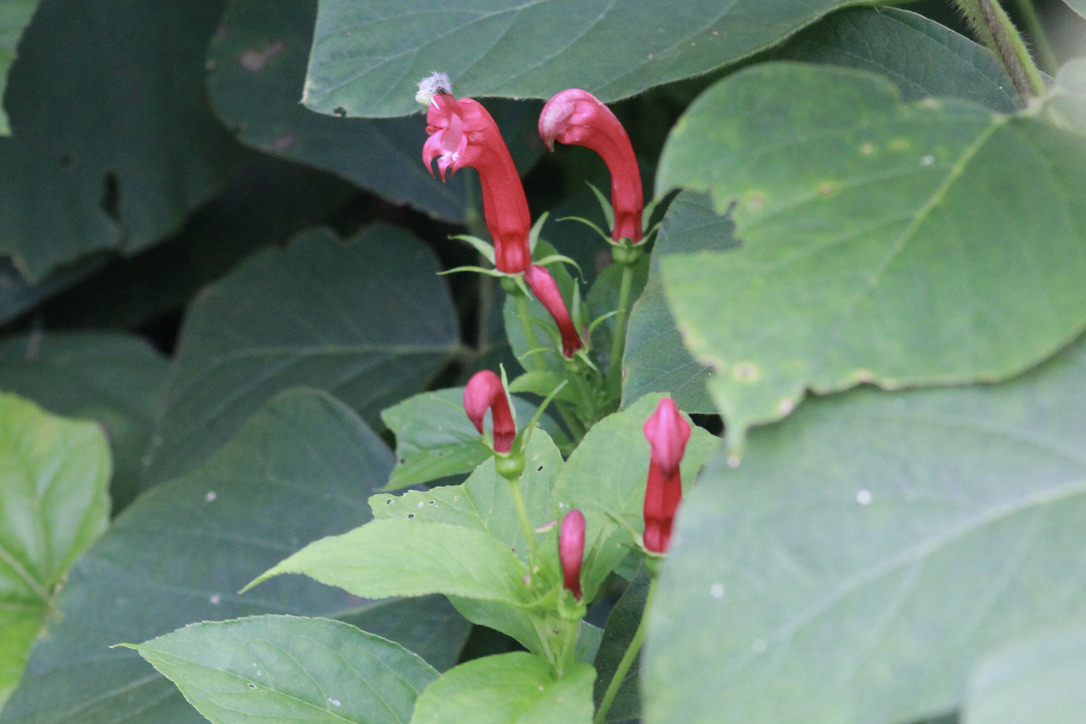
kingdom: Plantae
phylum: Tracheophyta
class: Magnoliopsida
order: Asterales
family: Campanulaceae
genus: Centropogon
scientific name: Centropogon cornutus
